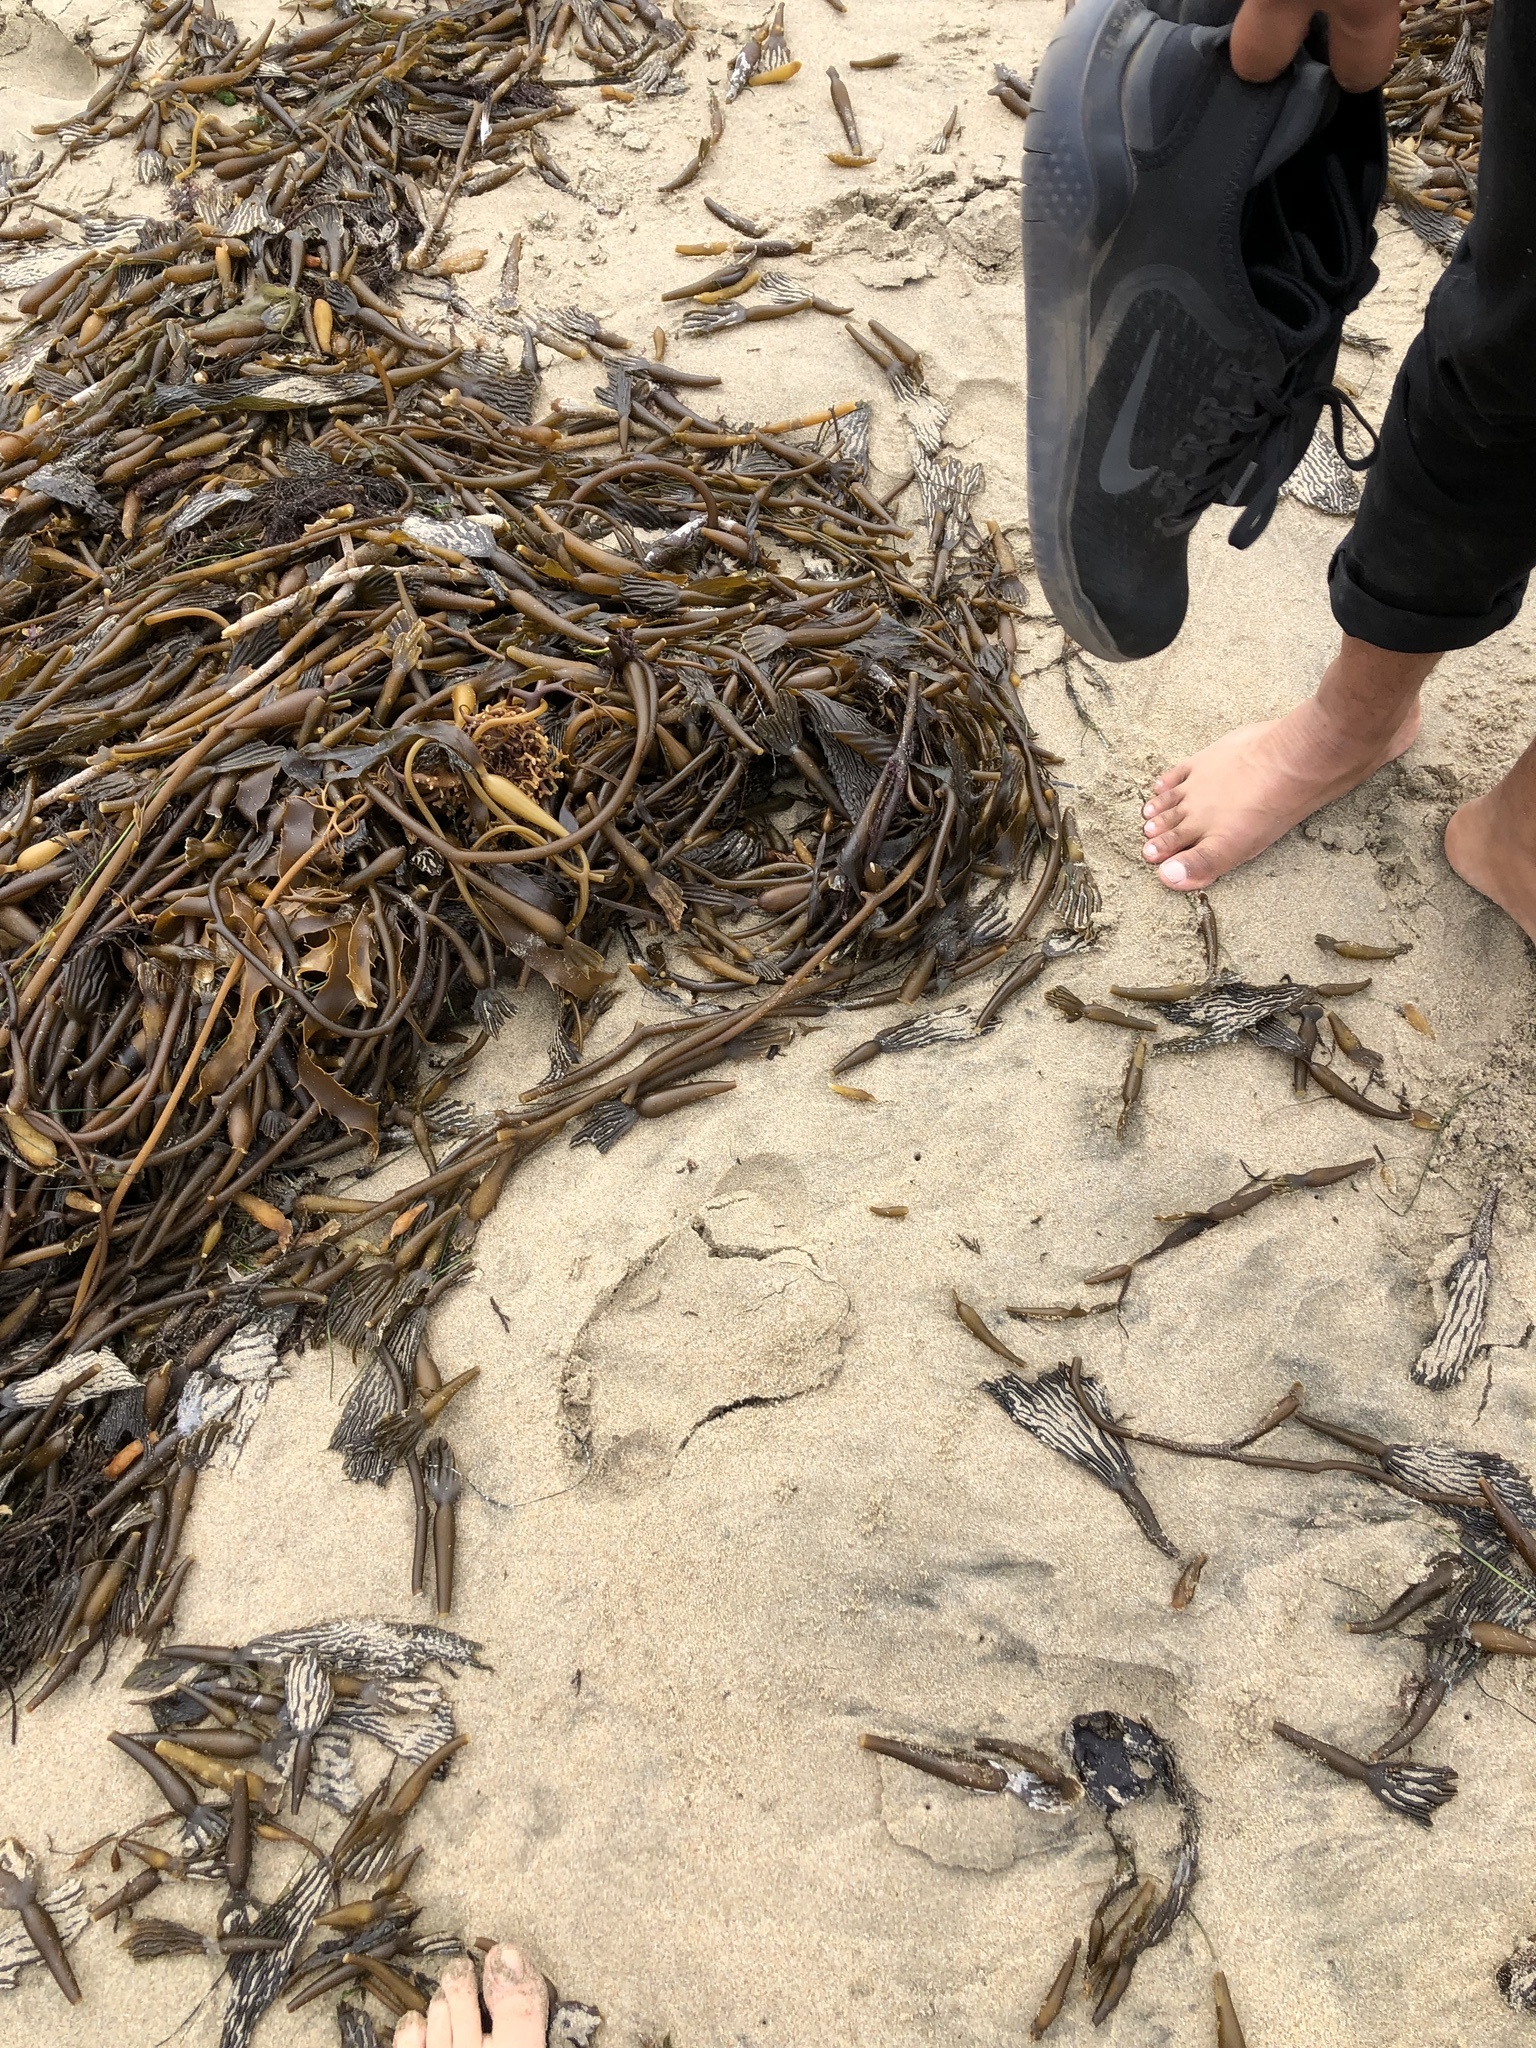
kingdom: Chromista
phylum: Ochrophyta
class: Phaeophyceae
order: Laminariales
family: Laminariaceae
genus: Macrocystis
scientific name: Macrocystis pyrifera
